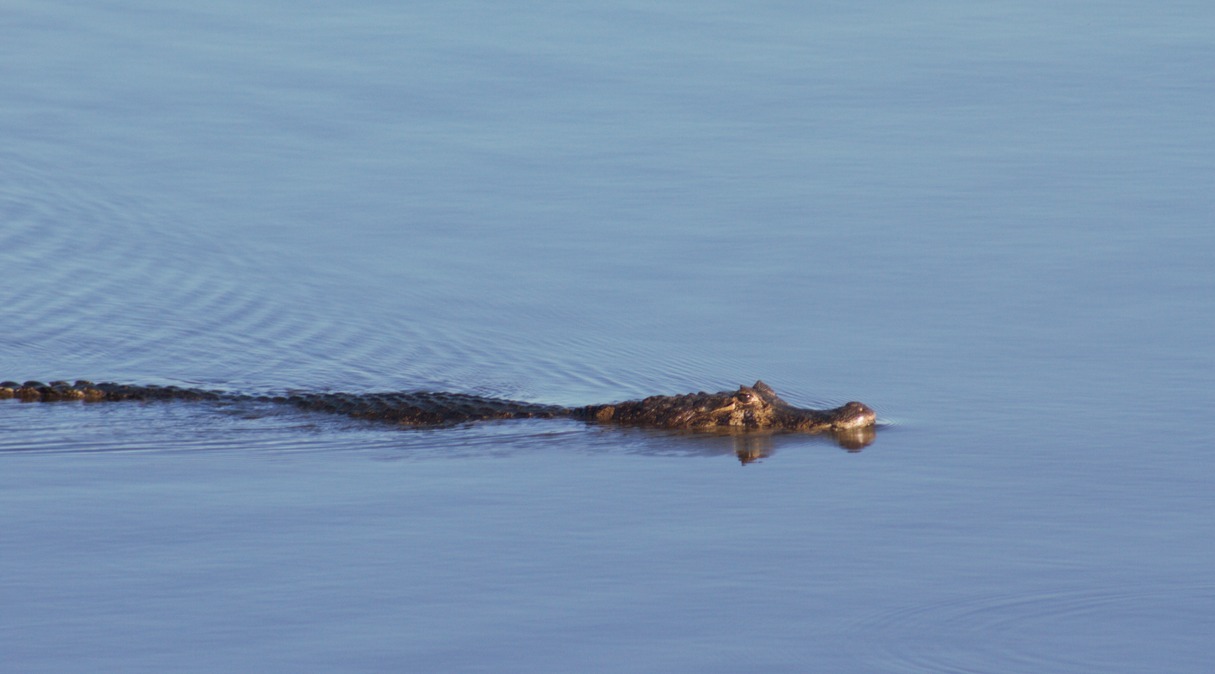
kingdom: Animalia
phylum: Chordata
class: Crocodylia
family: Alligatoridae
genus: Caiman
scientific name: Caiman yacare
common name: Yacare caiman
